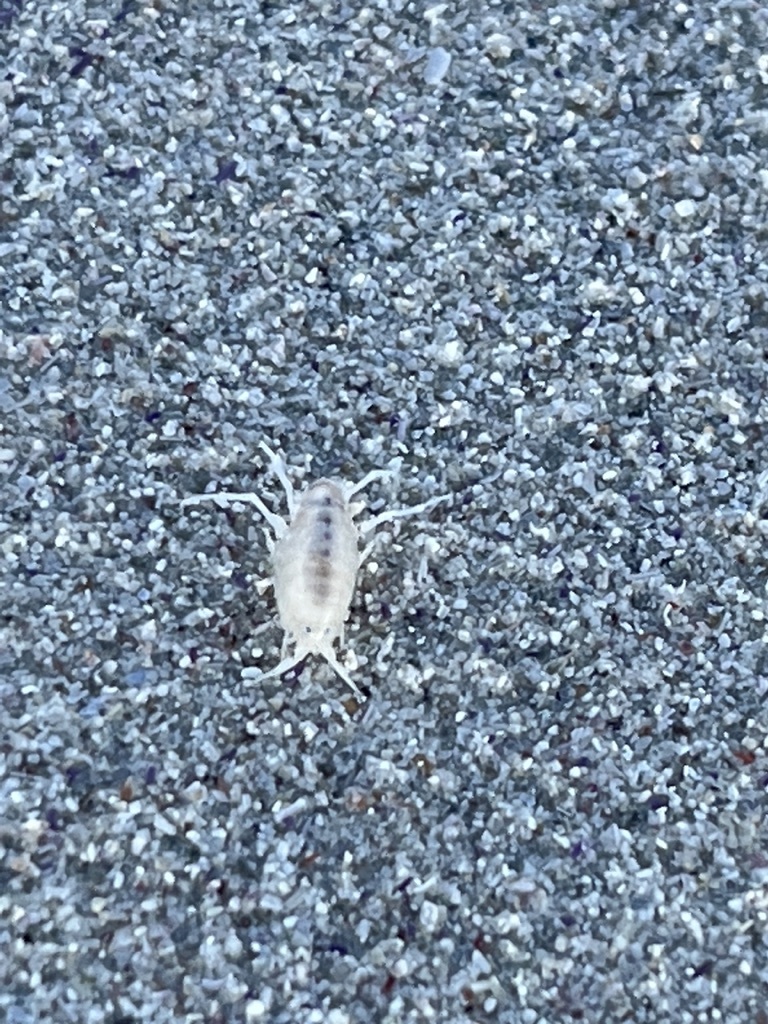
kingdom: Animalia
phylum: Arthropoda
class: Malacostraca
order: Amphipoda
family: Talitridae
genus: Africorchestia
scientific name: Africorchestia quadrispinosa
